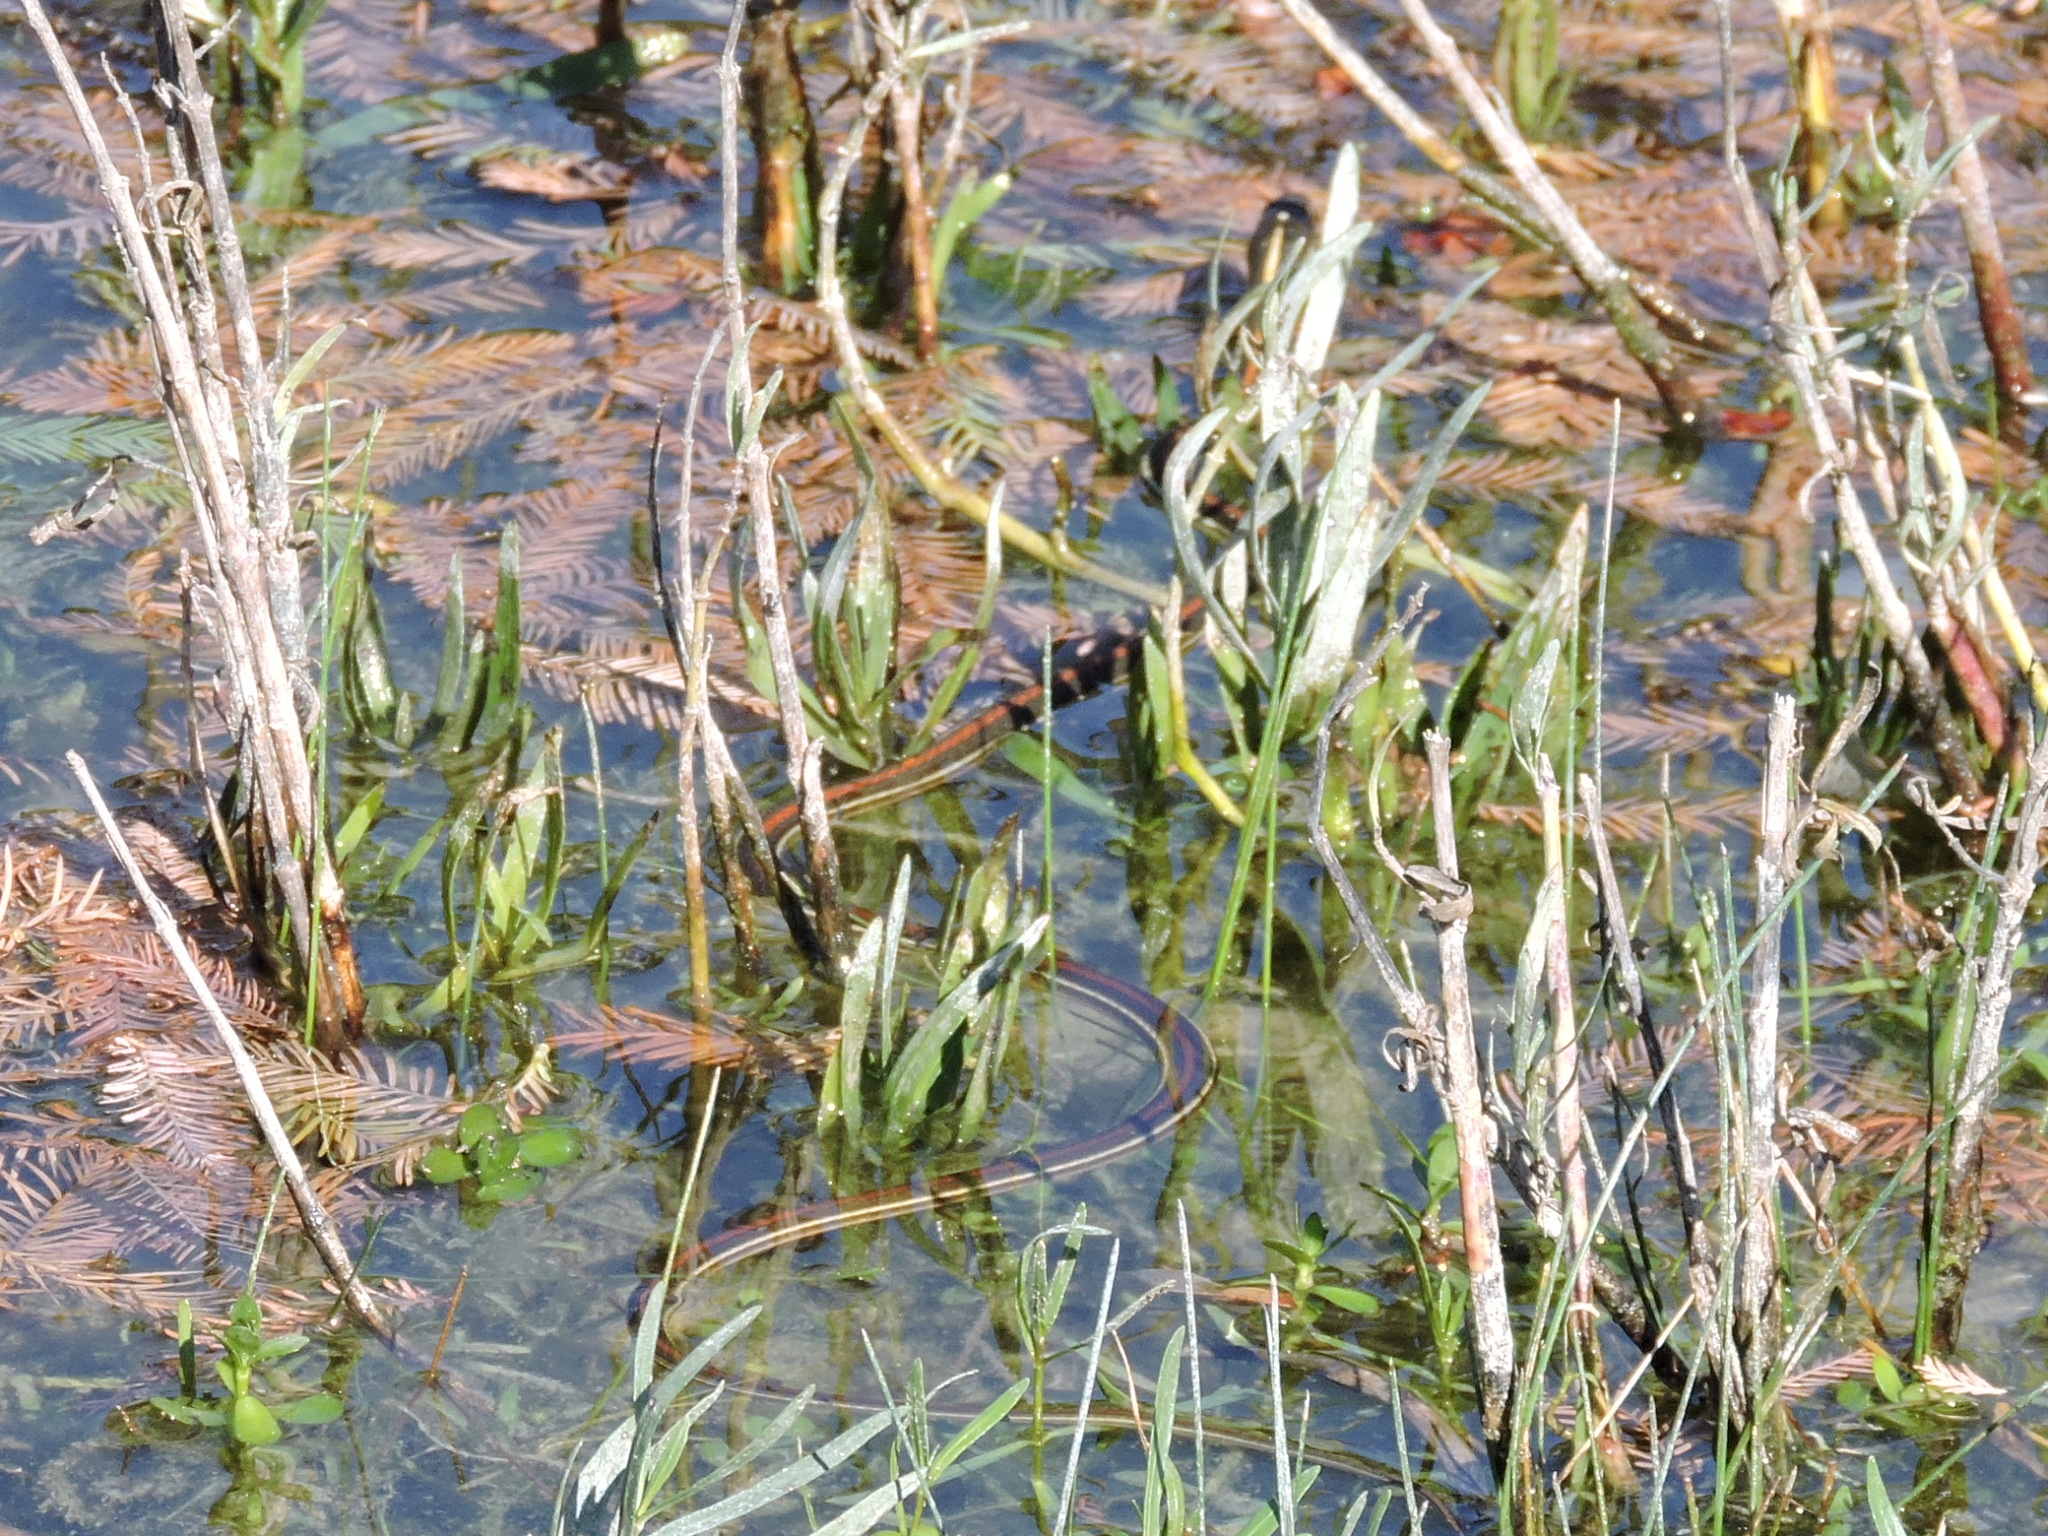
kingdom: Animalia
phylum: Chordata
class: Squamata
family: Colubridae
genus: Thamnophis
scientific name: Thamnophis proximus
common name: Western ribbon snake
